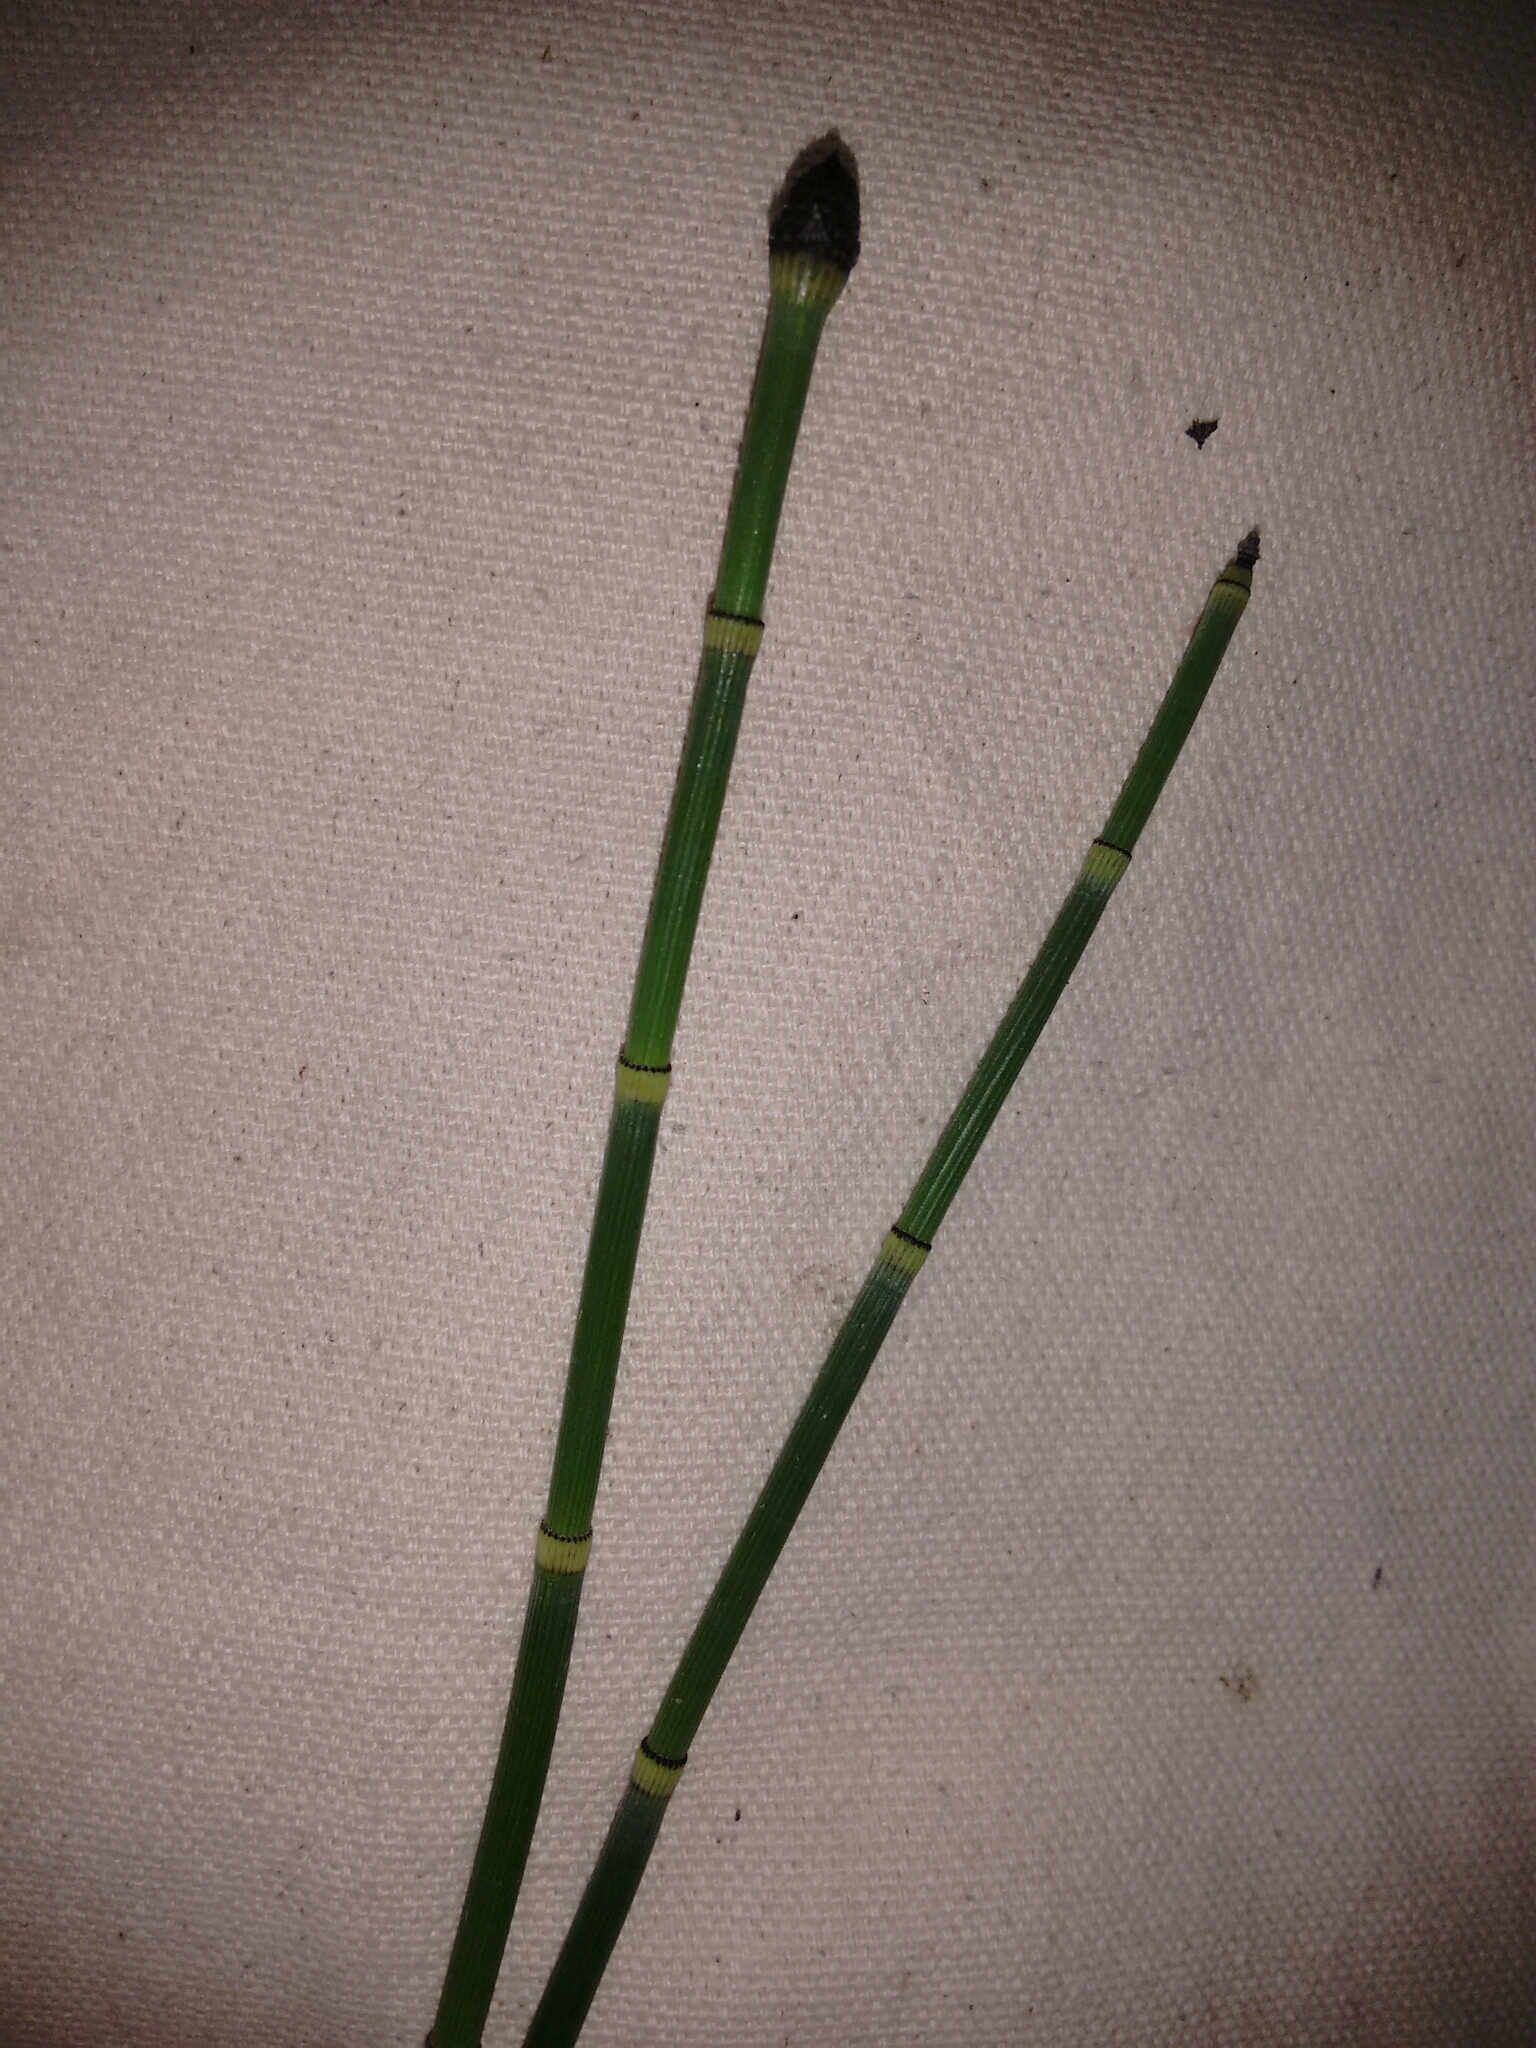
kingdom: Plantae
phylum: Tracheophyta
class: Polypodiopsida
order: Equisetales
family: Equisetaceae
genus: Equisetum
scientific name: Equisetum hyemale
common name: Rough horsetail
